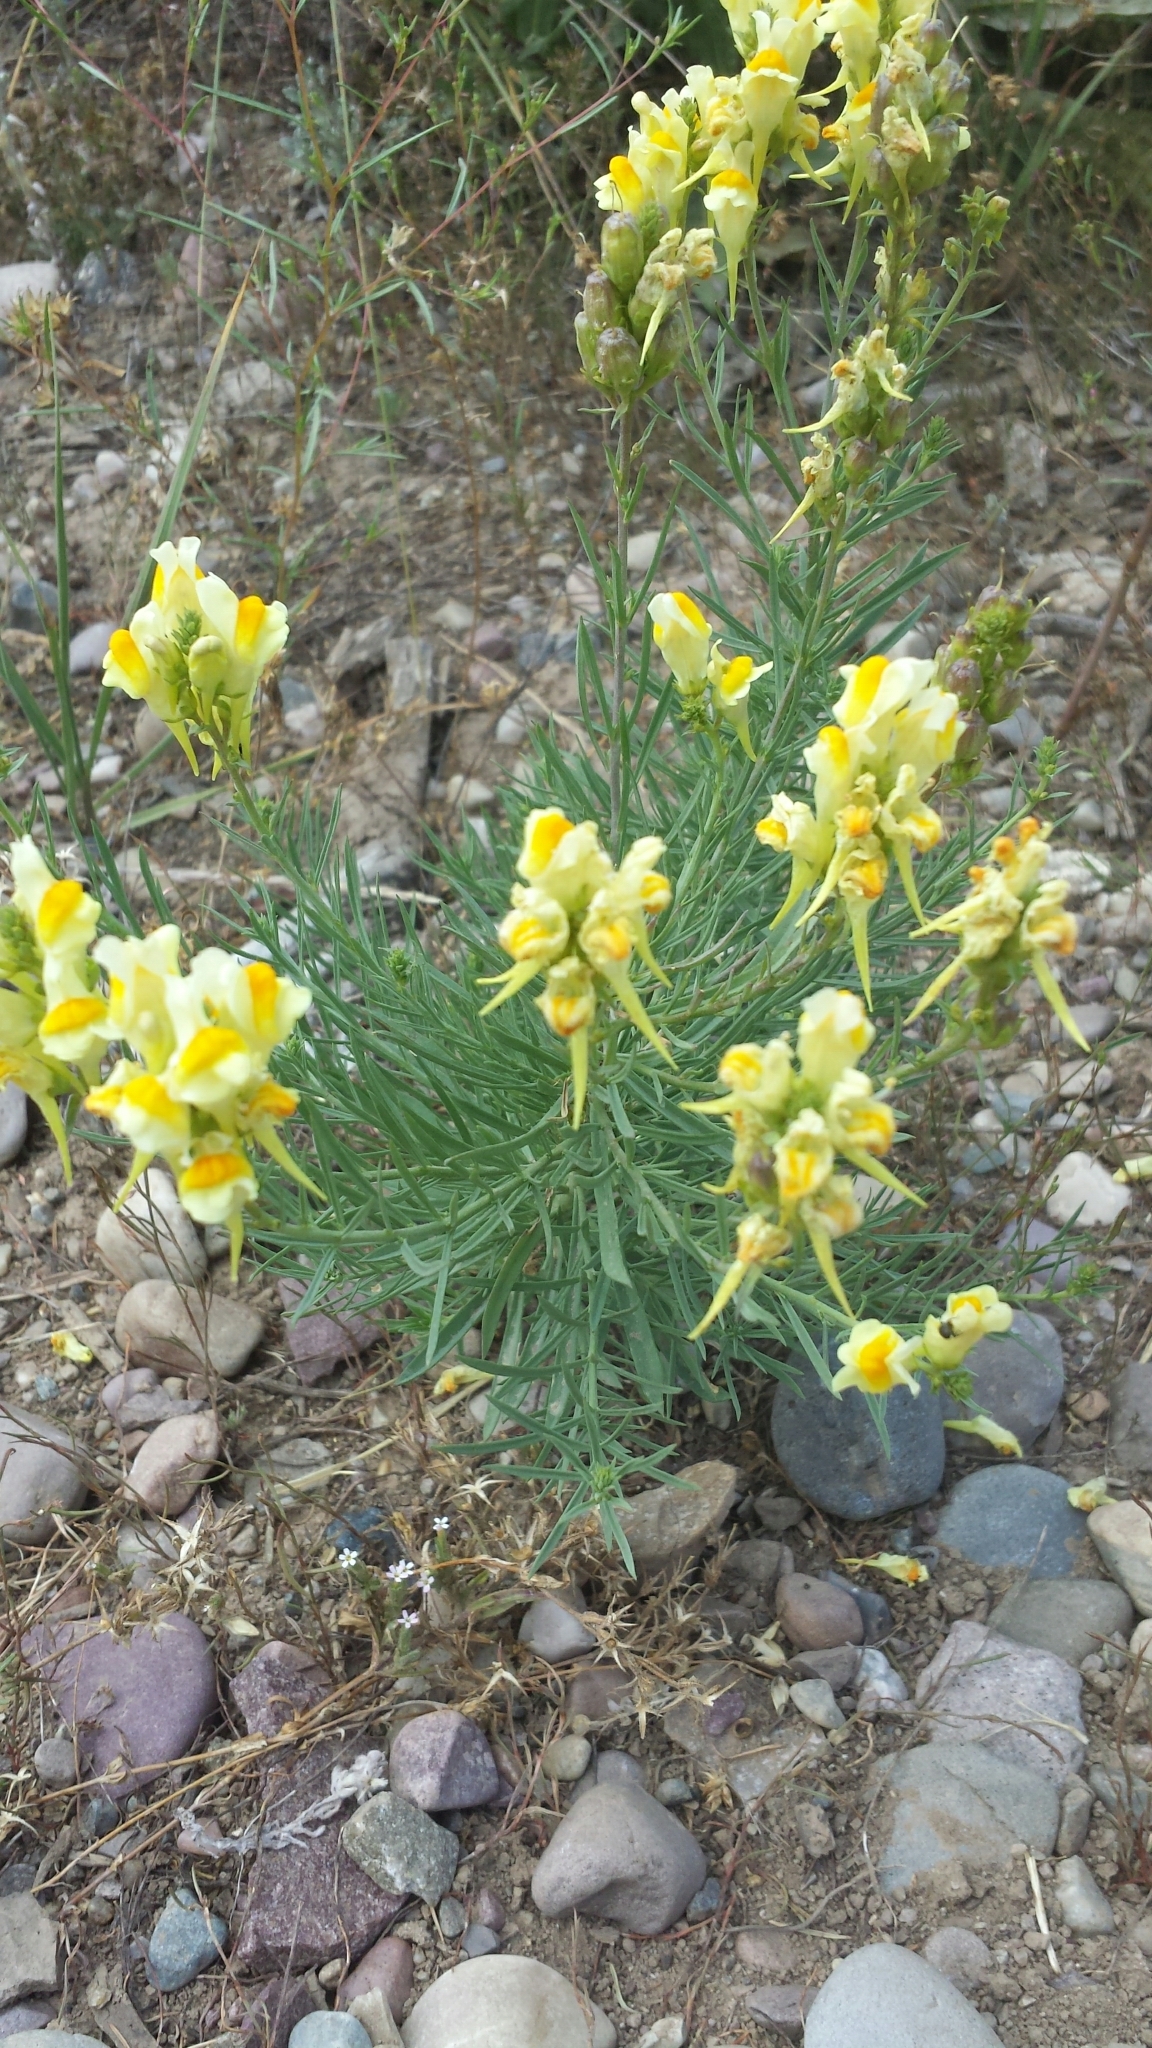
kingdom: Plantae
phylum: Tracheophyta
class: Magnoliopsida
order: Lamiales
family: Plantaginaceae
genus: Linaria
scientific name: Linaria vulgaris
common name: Butter and eggs
